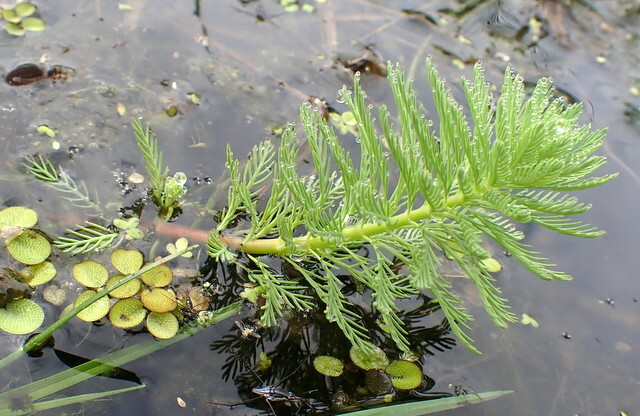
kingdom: Plantae
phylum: Tracheophyta
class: Magnoliopsida
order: Saxifragales
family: Haloragaceae
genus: Myriophyllum
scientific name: Myriophyllum aquaticum
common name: Parrot's feather
